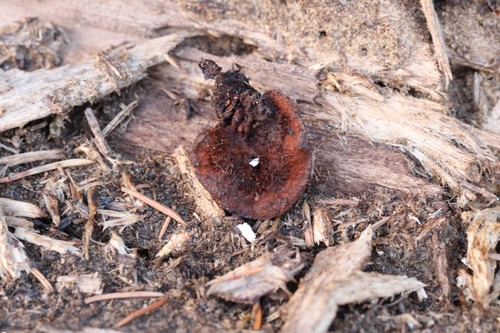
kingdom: Fungi
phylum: Basidiomycota
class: Agaricomycetes
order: Gloeophyllales
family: Gloeophyllaceae
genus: Gloeophyllum
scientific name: Gloeophyllum sepiarium
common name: Conifer mazegill
